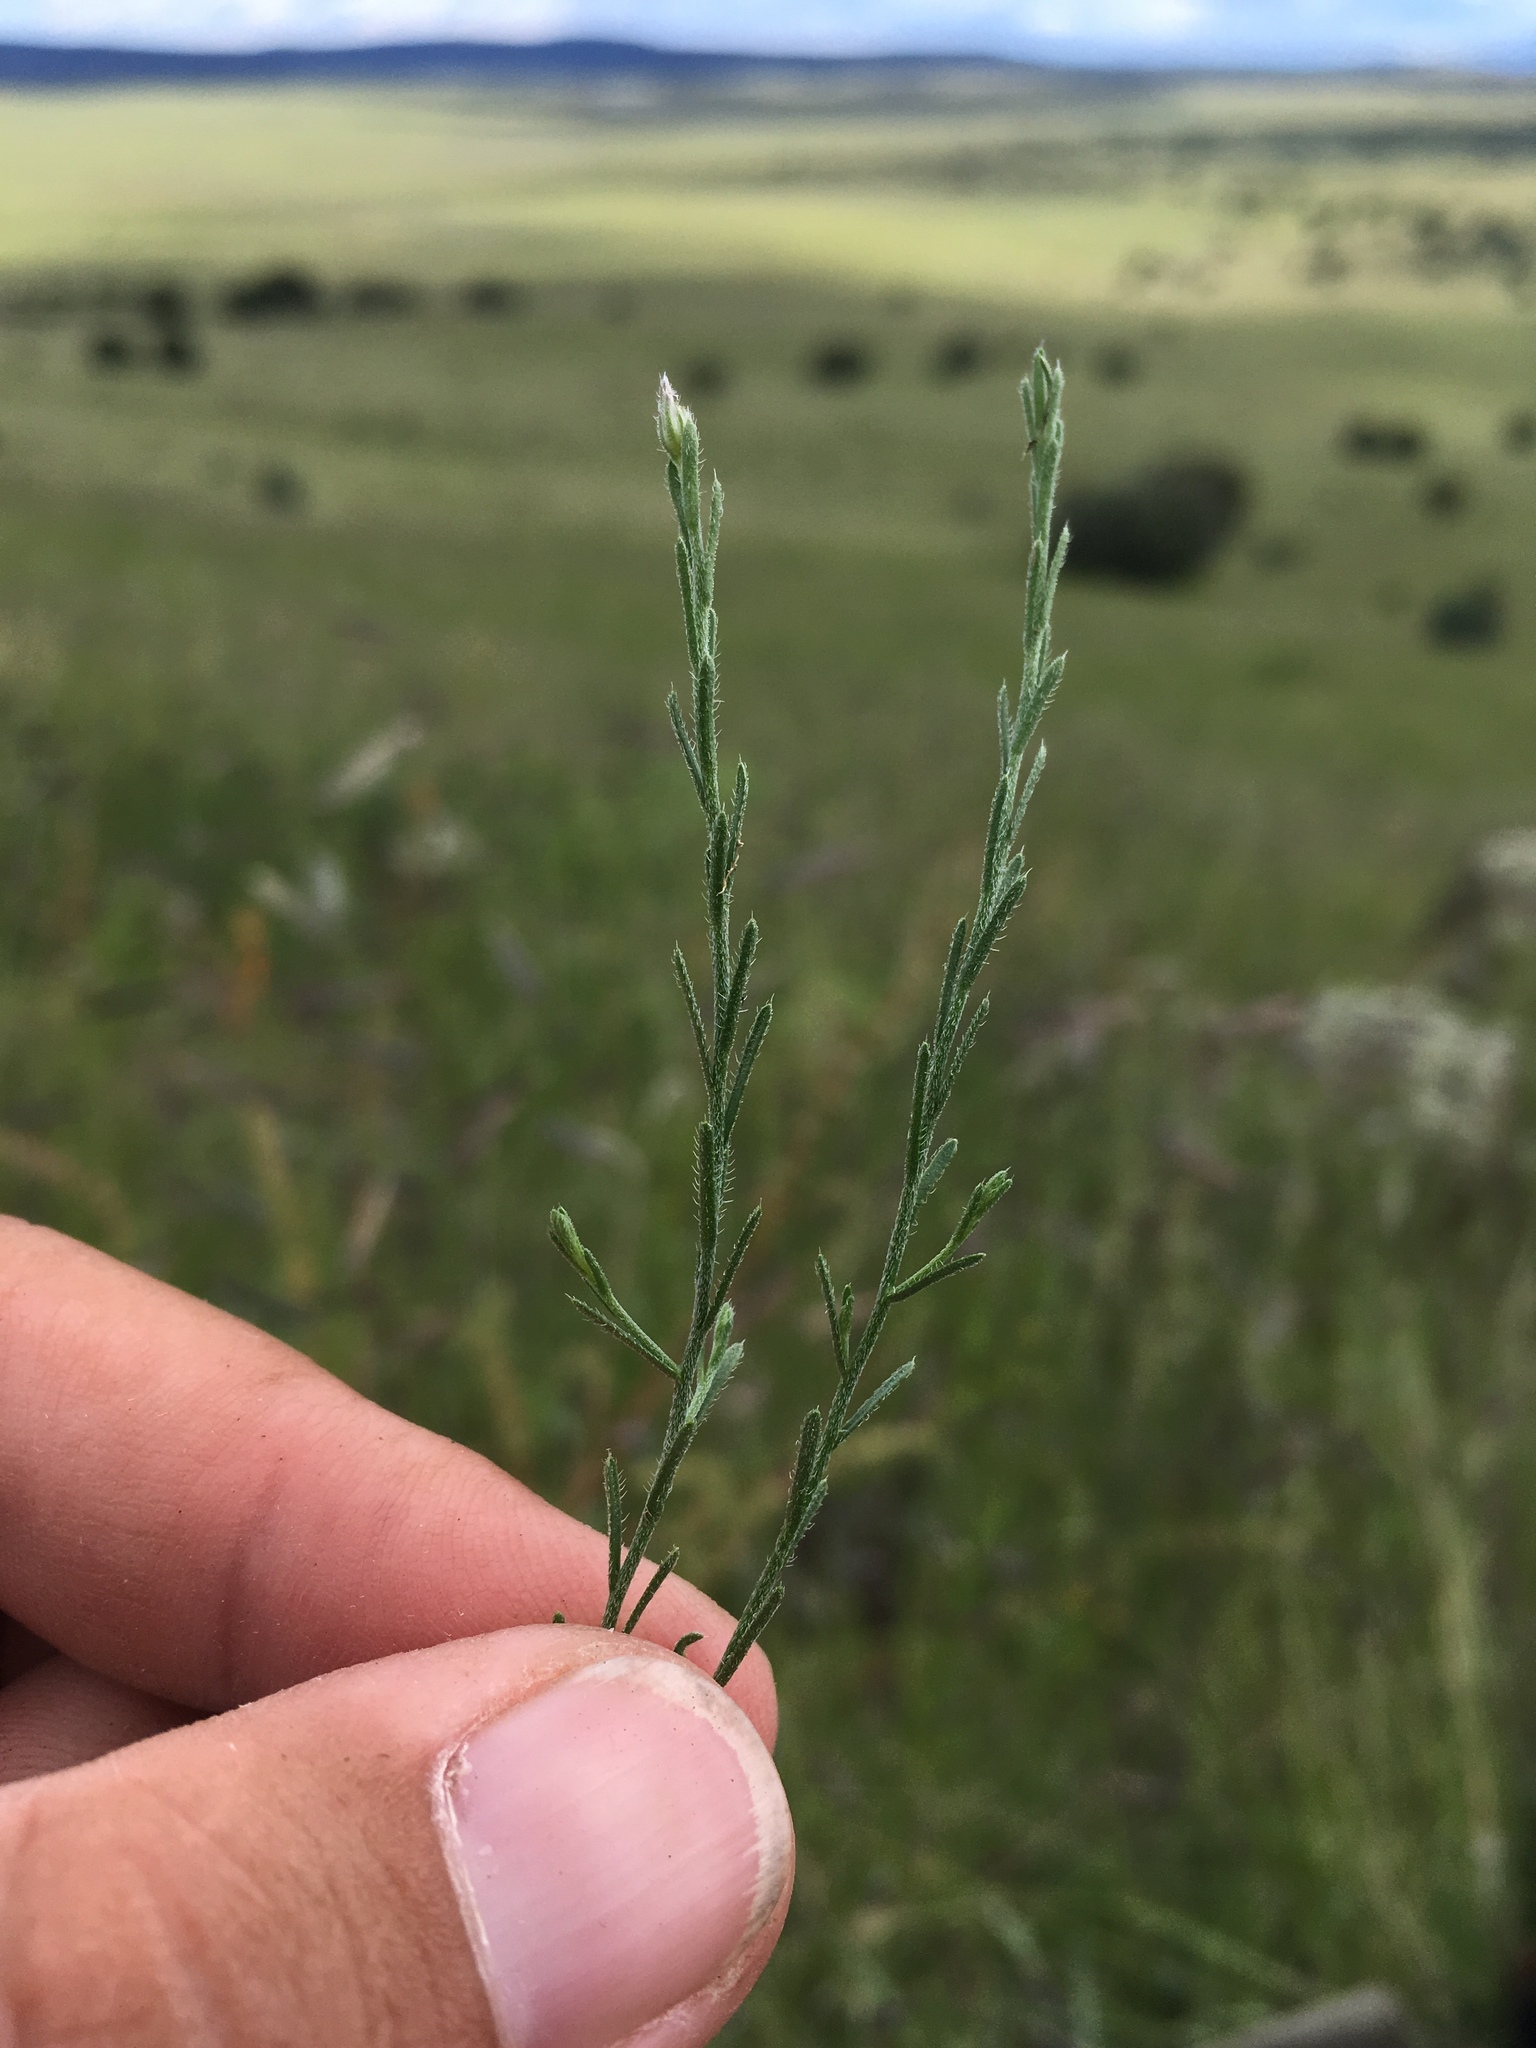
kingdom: Plantae
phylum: Tracheophyta
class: Magnoliopsida
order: Asterales
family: Asteraceae
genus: Chaetopappa
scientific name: Chaetopappa ericoides
